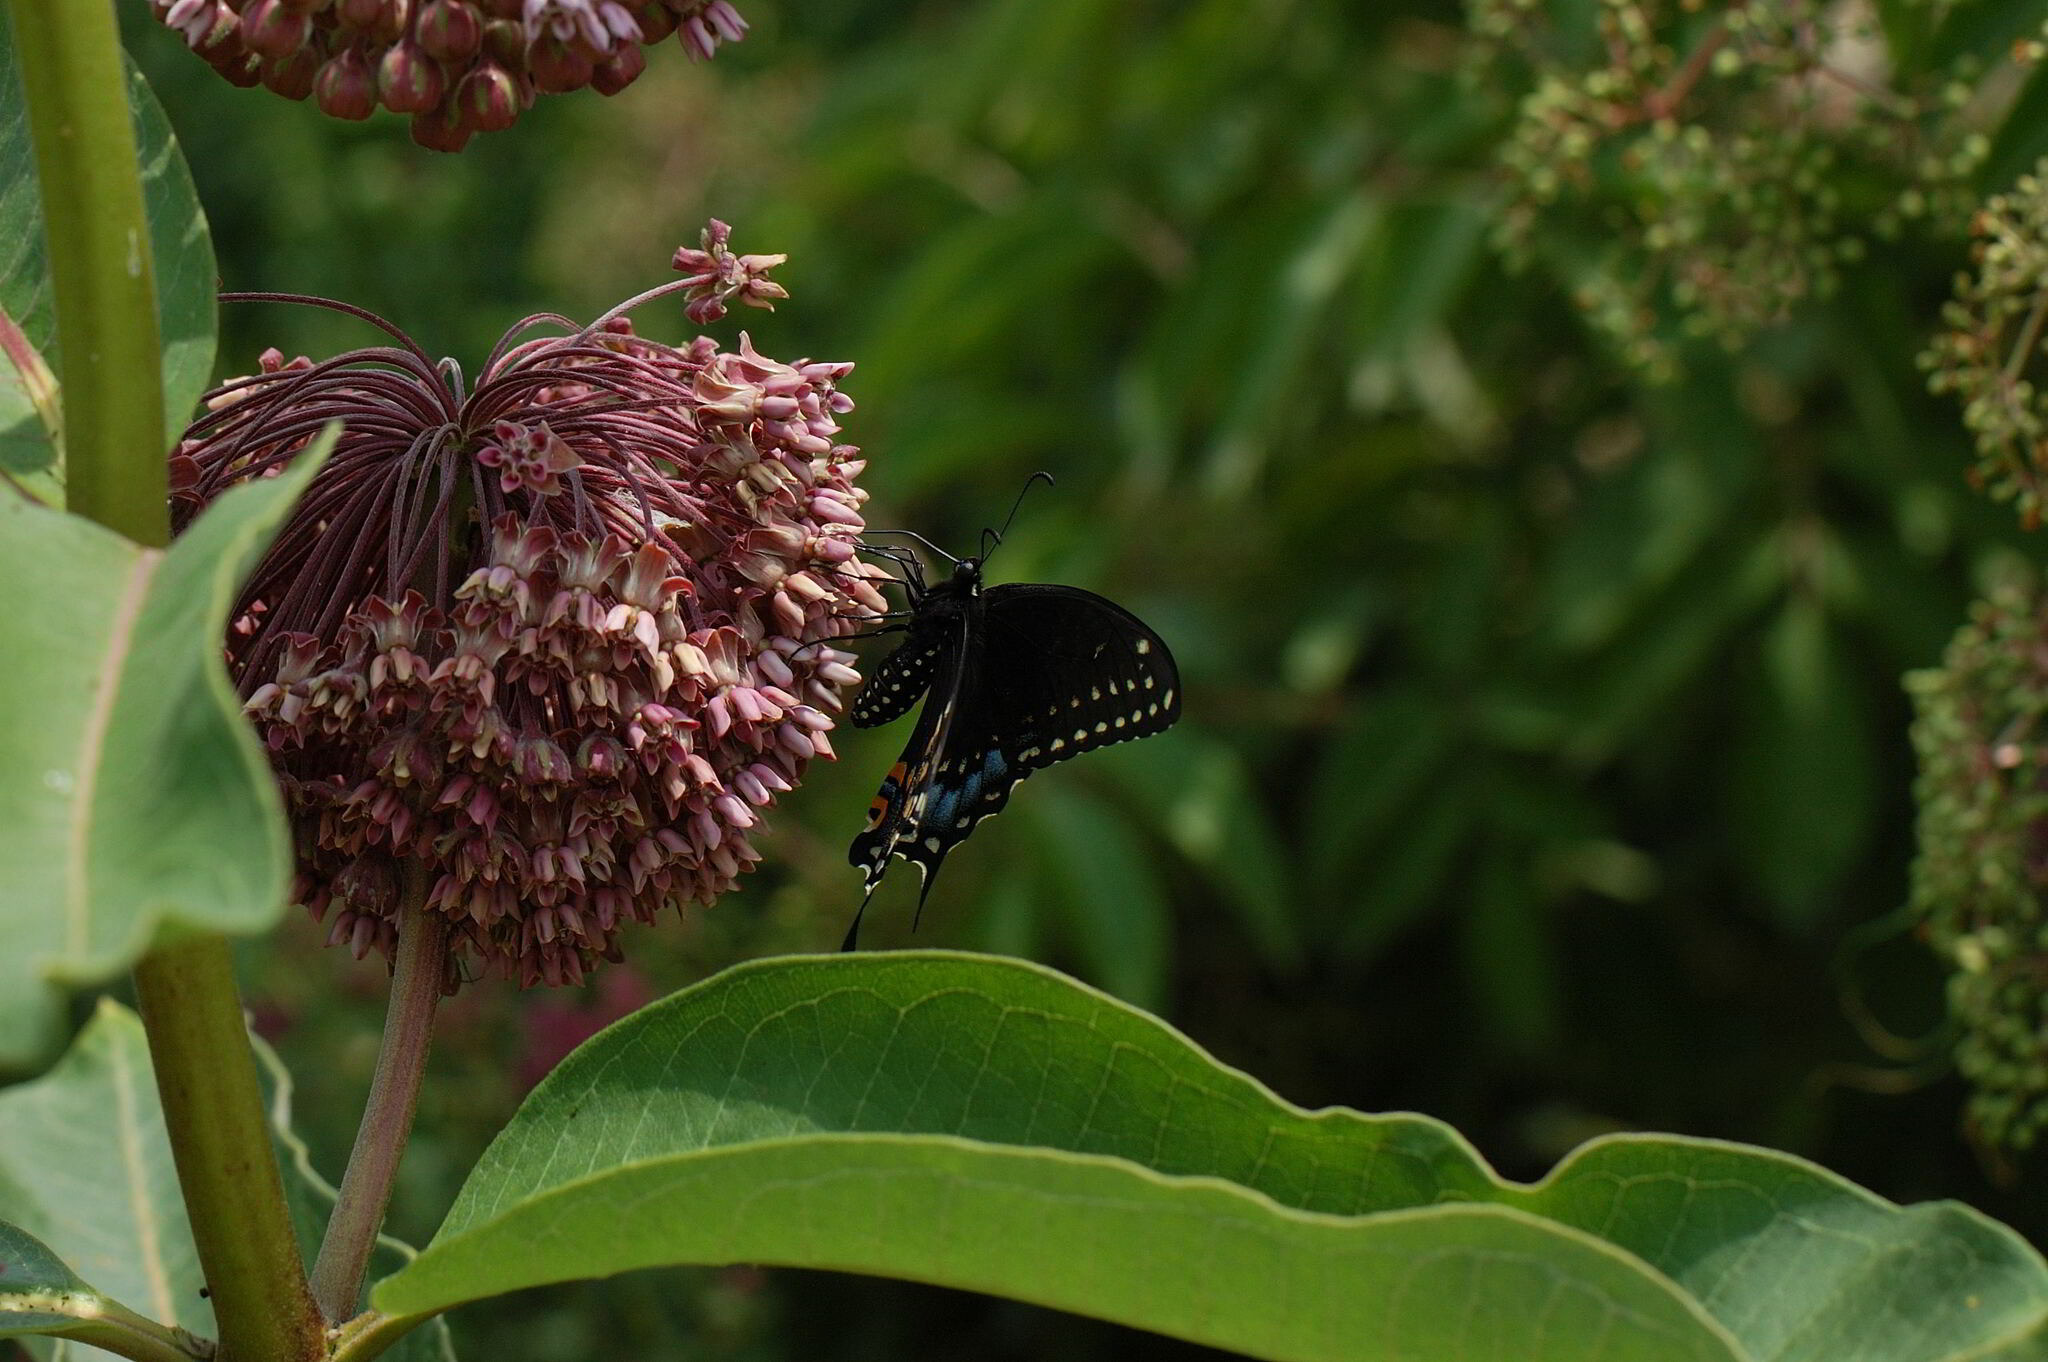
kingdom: Animalia
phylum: Arthropoda
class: Insecta
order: Lepidoptera
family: Papilionidae
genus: Papilio
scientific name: Papilio polyxenes
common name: Black swallowtail
